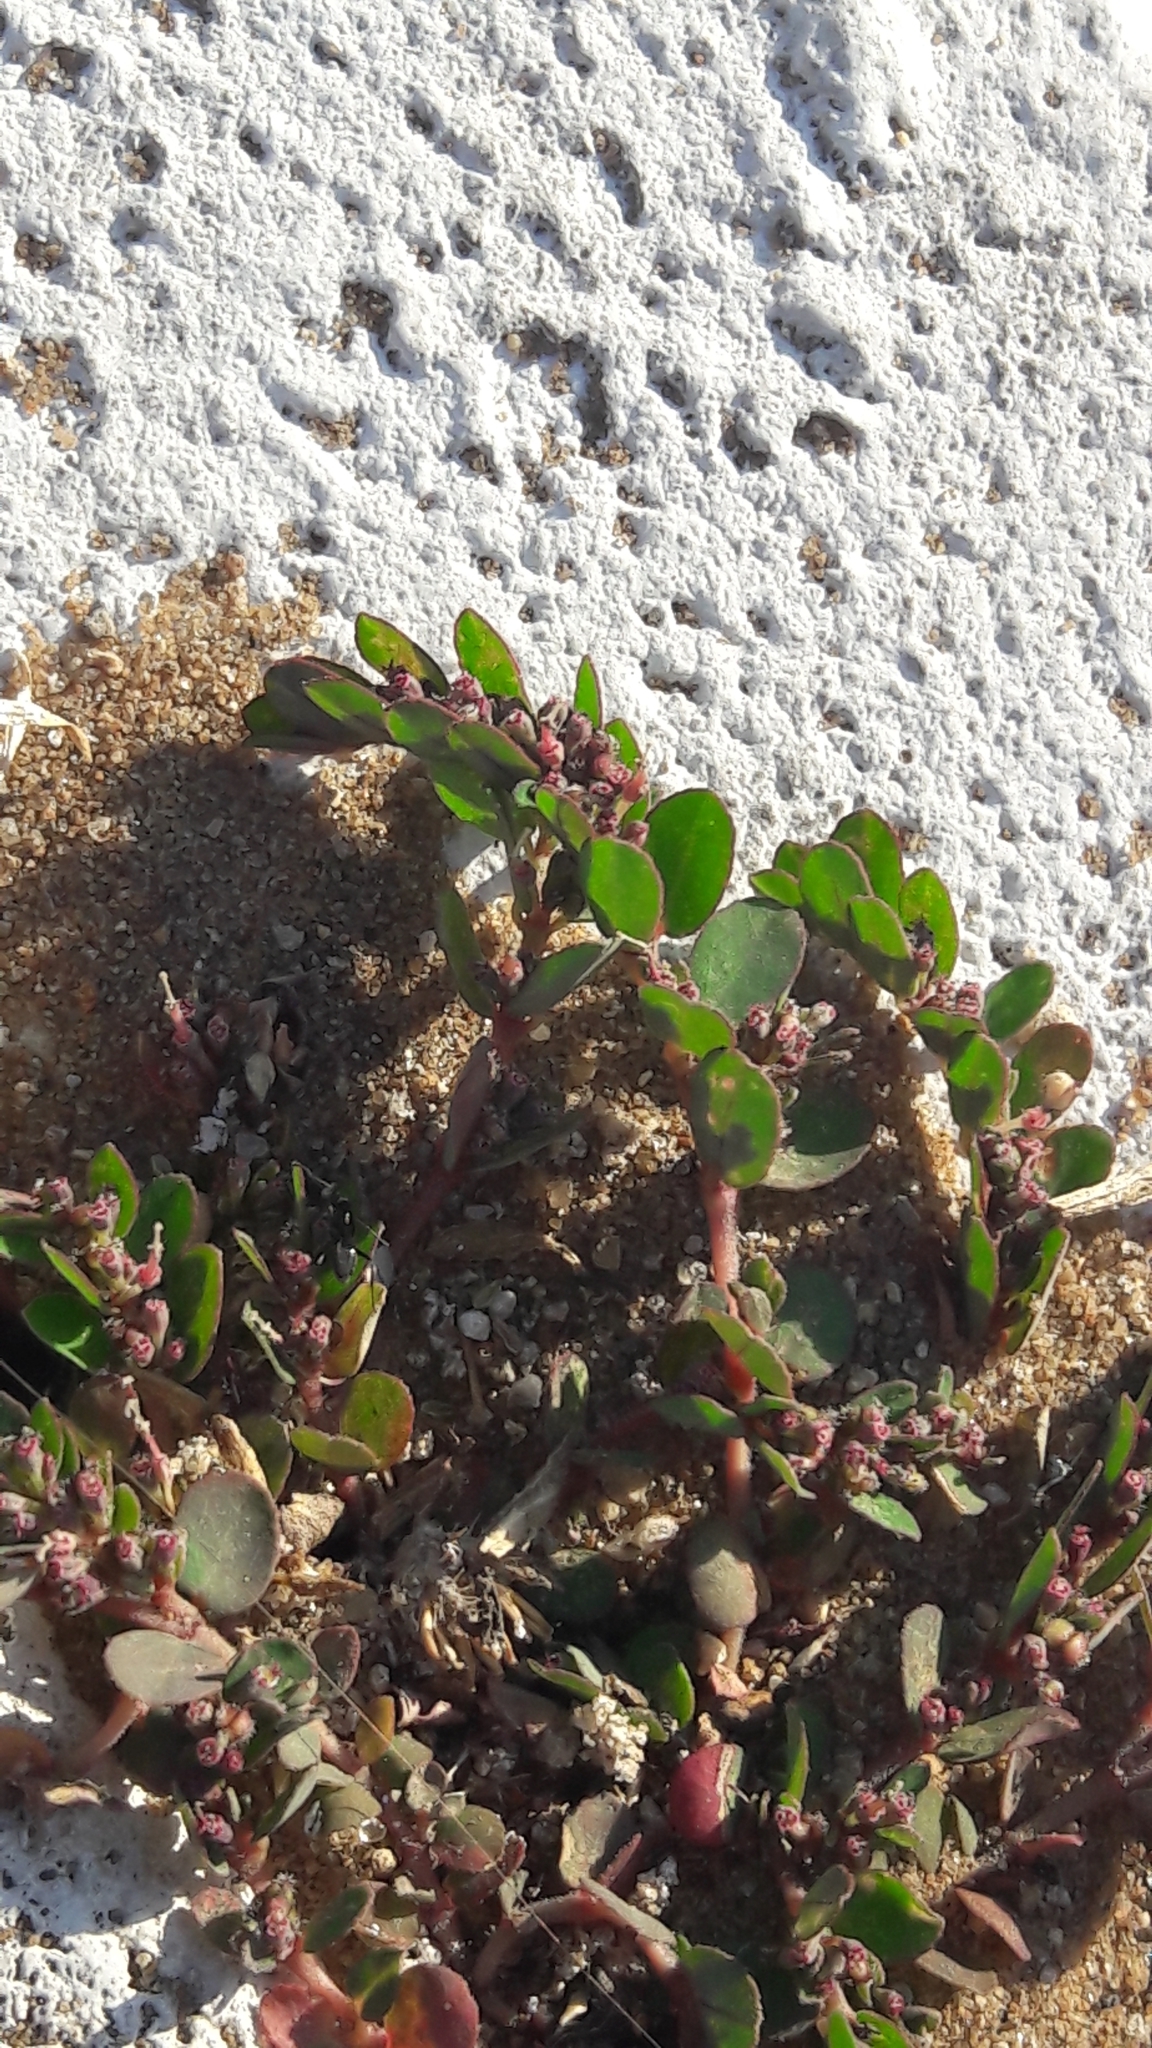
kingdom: Plantae
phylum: Tracheophyta
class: Magnoliopsida
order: Malpighiales
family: Euphorbiaceae
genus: Euphorbia
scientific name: Euphorbia prostrata
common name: Prostrate sandmat
